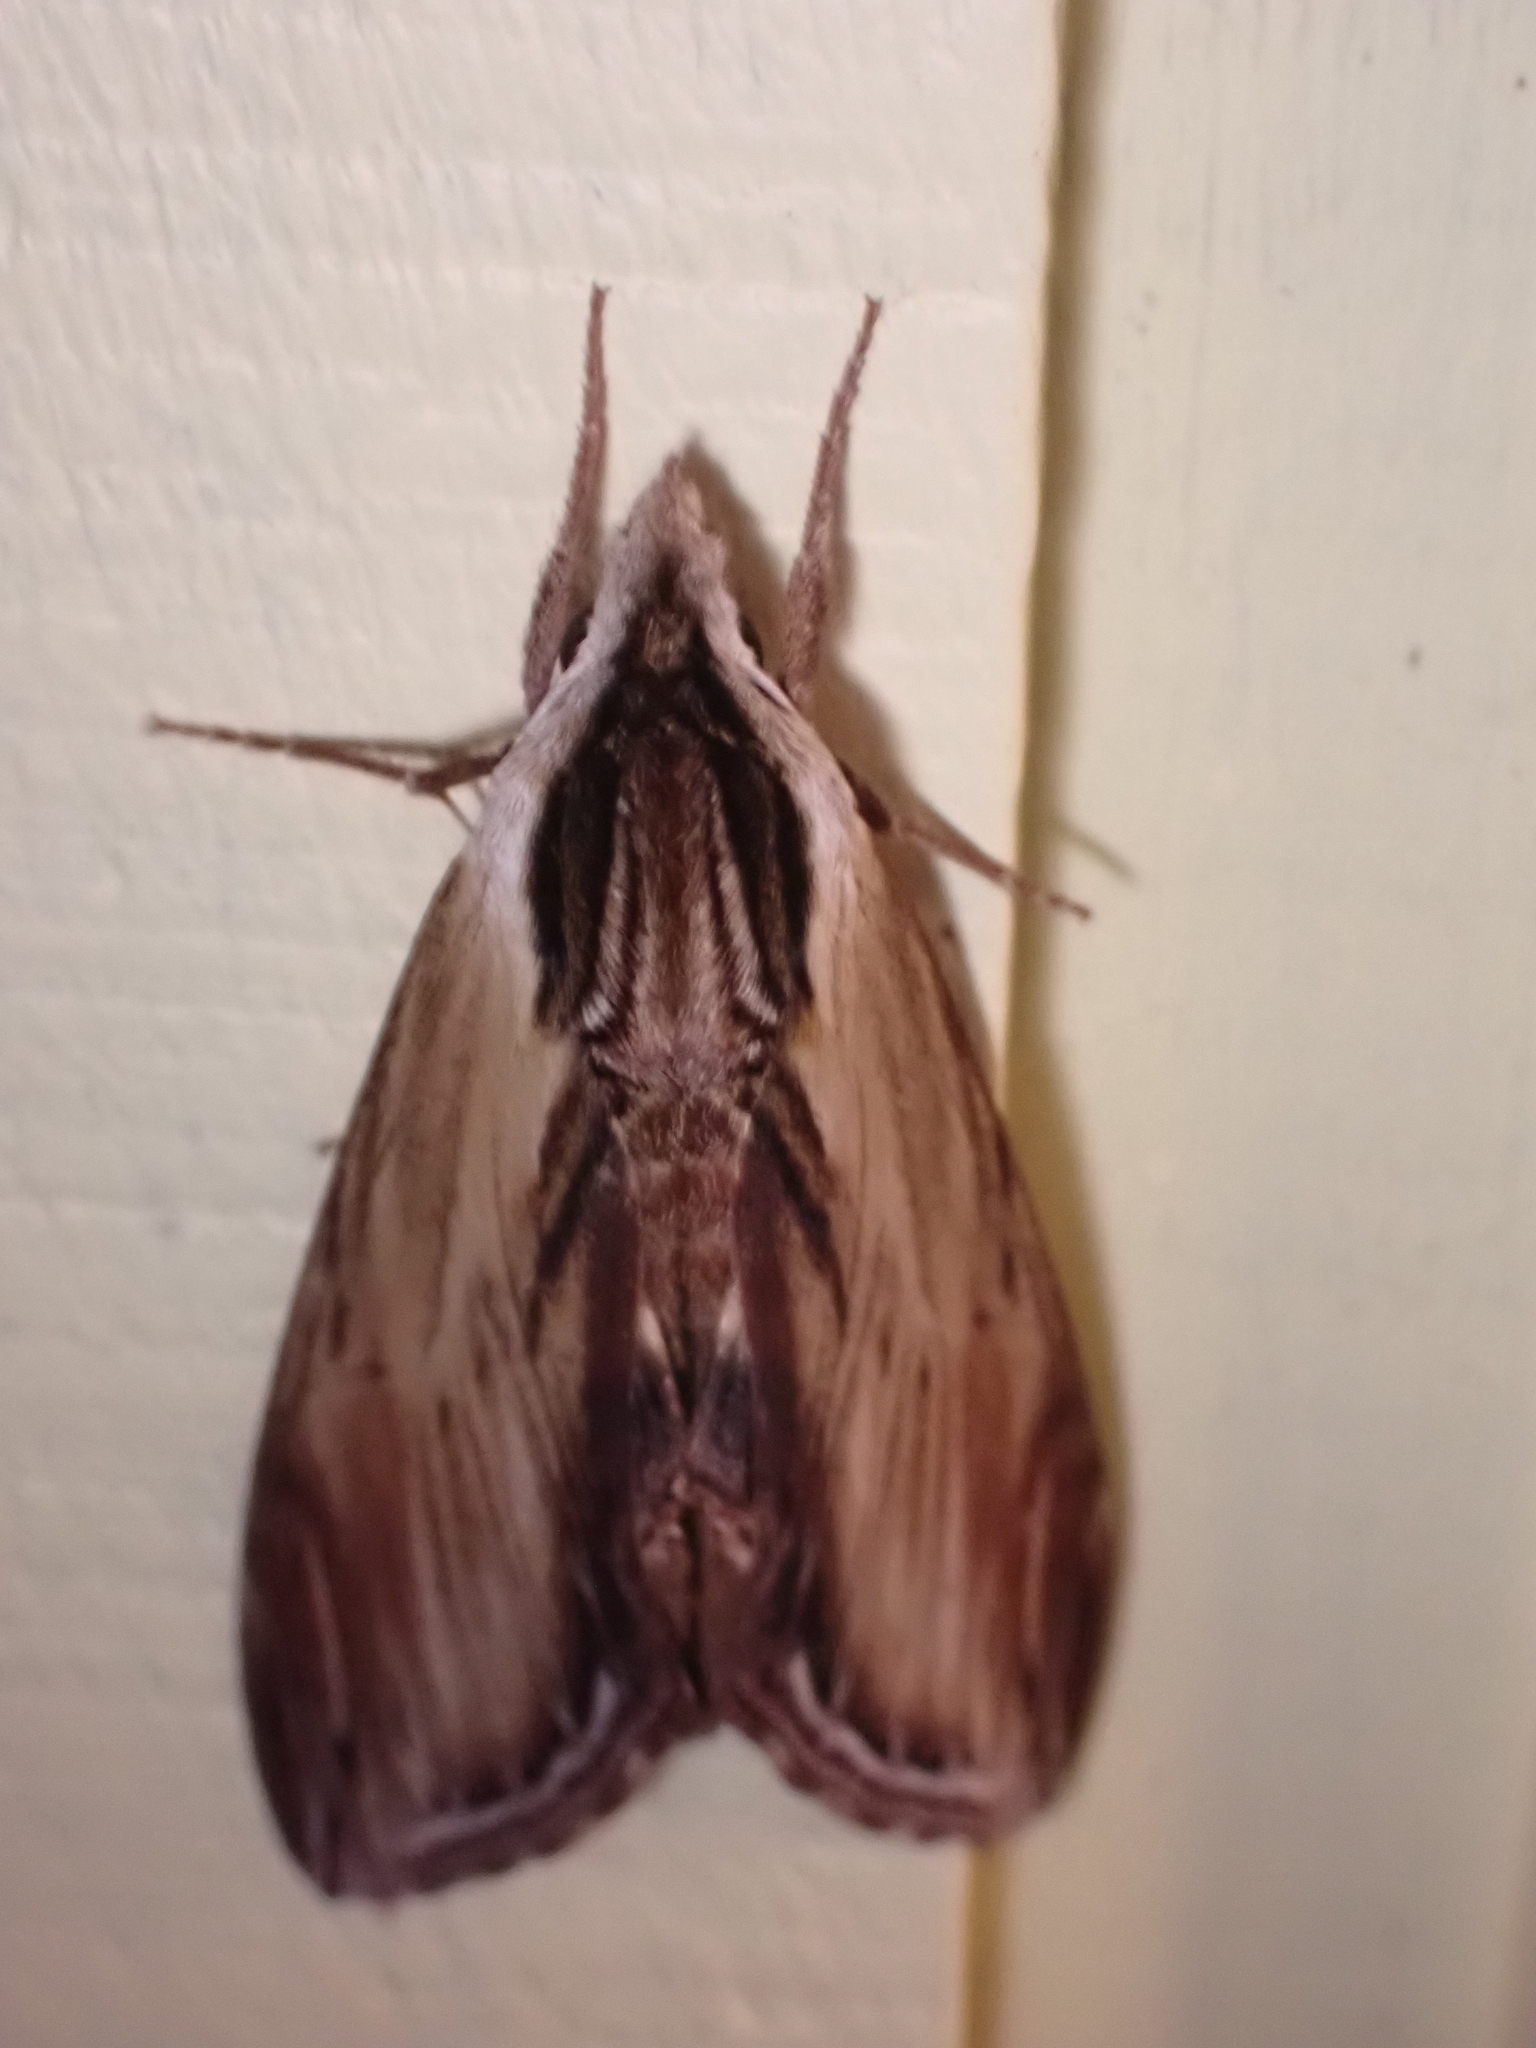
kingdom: Animalia
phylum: Arthropoda
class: Insecta
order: Lepidoptera
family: Sphingidae
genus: Sphinx
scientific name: Sphinx kalmiae
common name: Laurel sphinx
